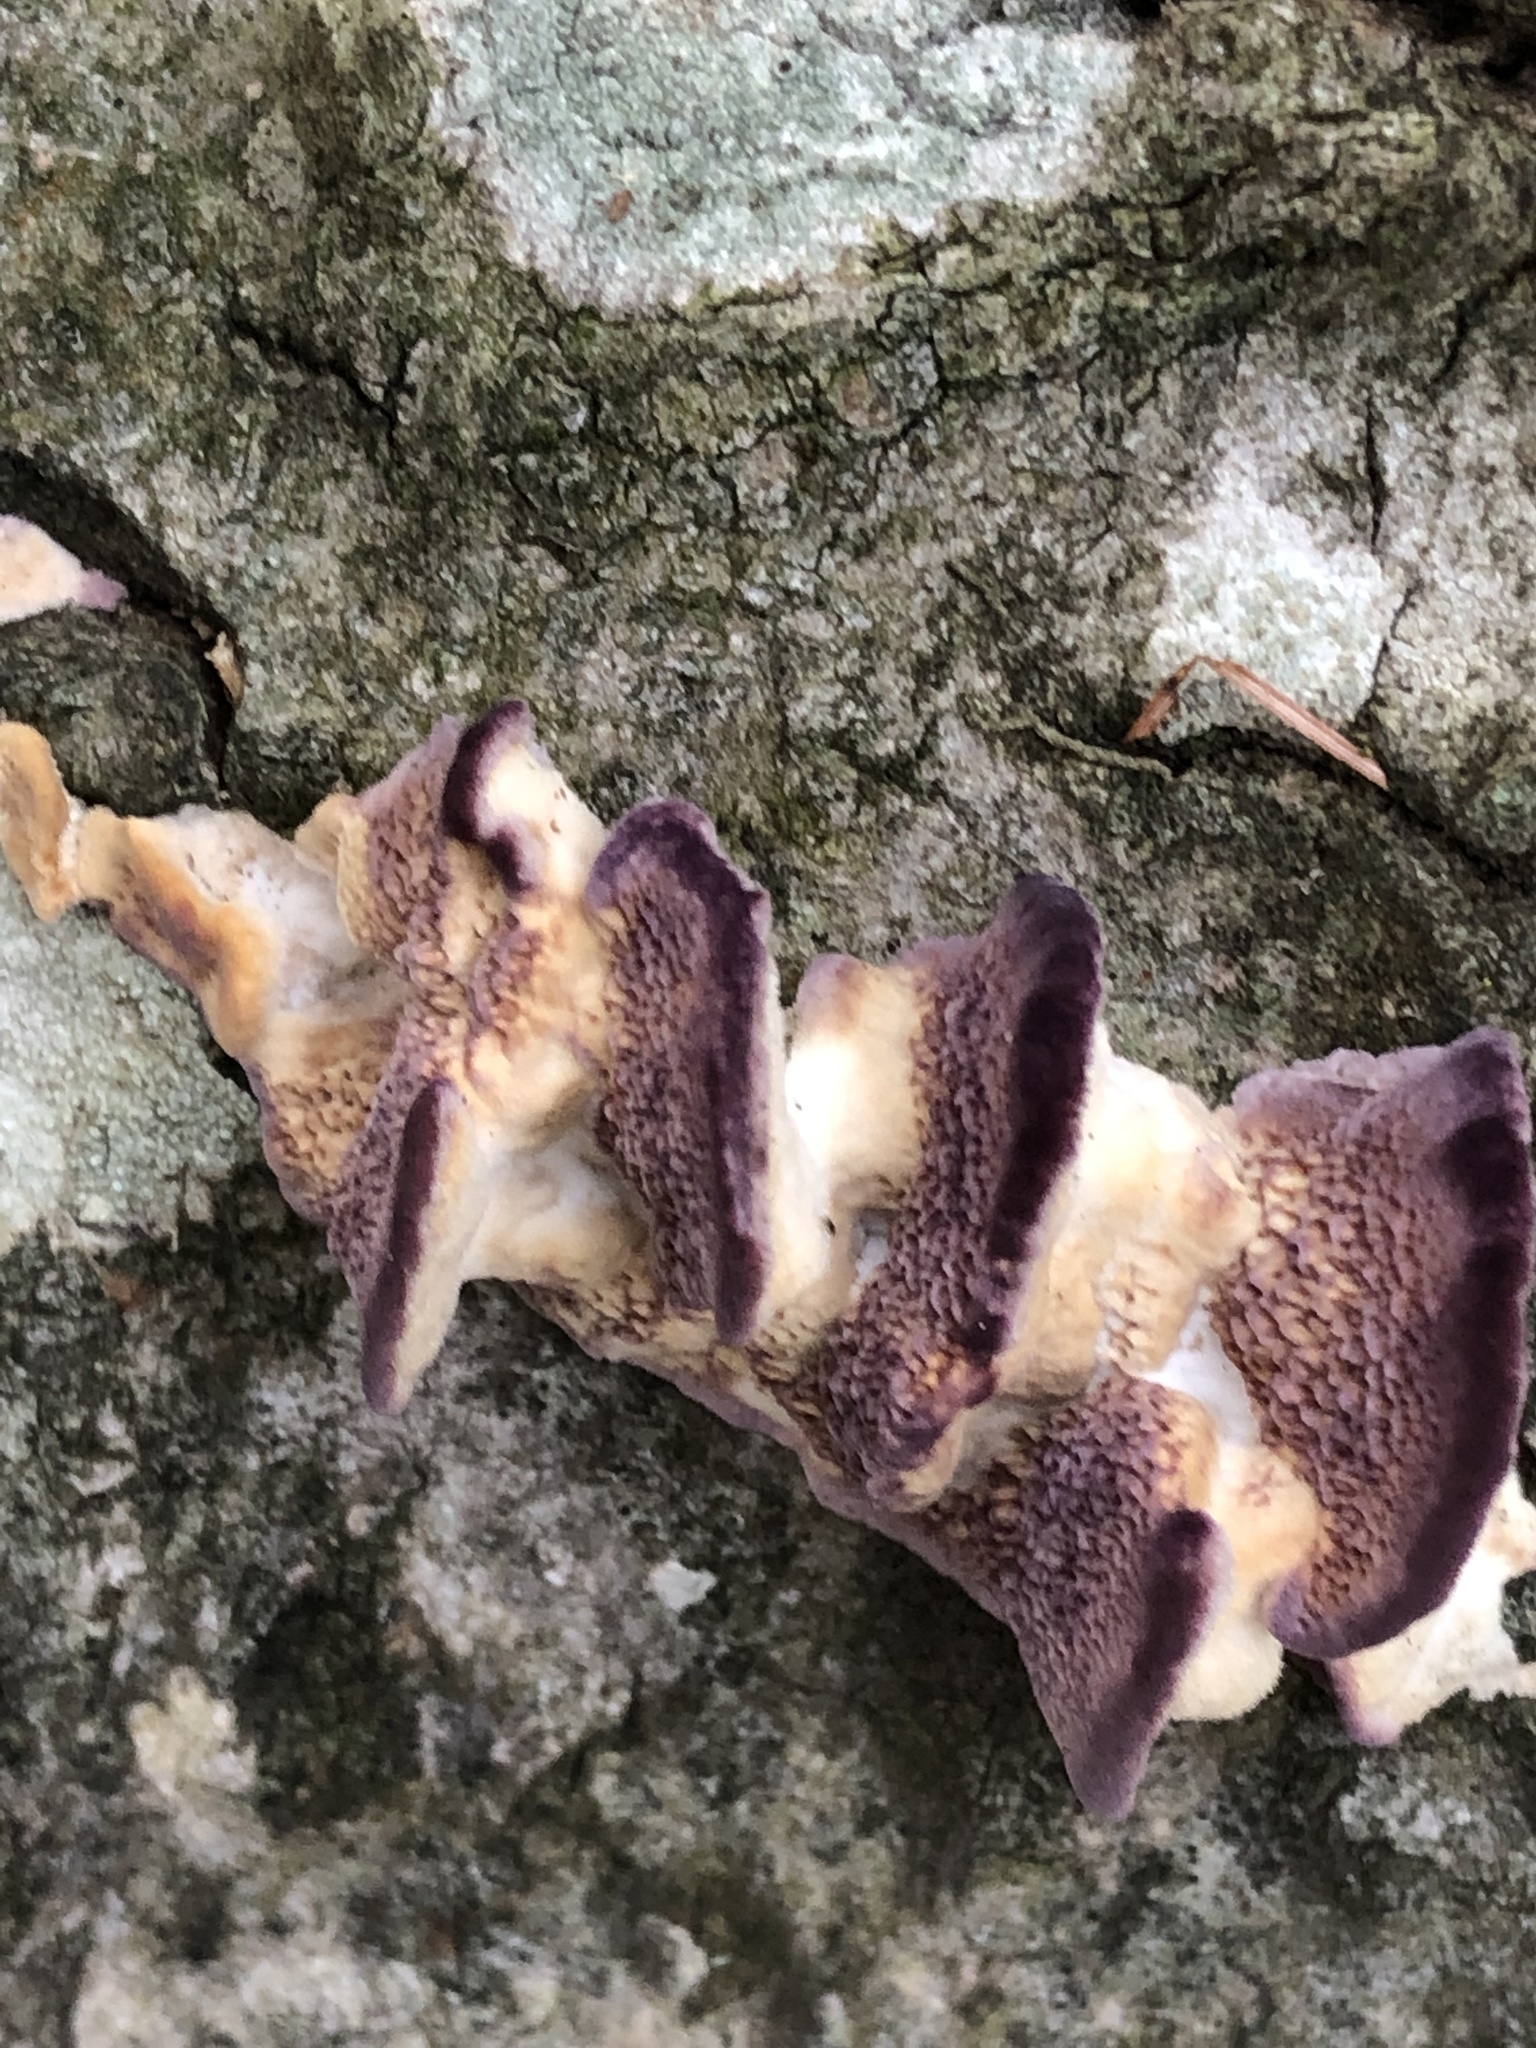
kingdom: Fungi
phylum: Basidiomycota
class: Agaricomycetes
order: Hymenochaetales
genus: Trichaptum
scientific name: Trichaptum biforme
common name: Violet-toothed polypore
